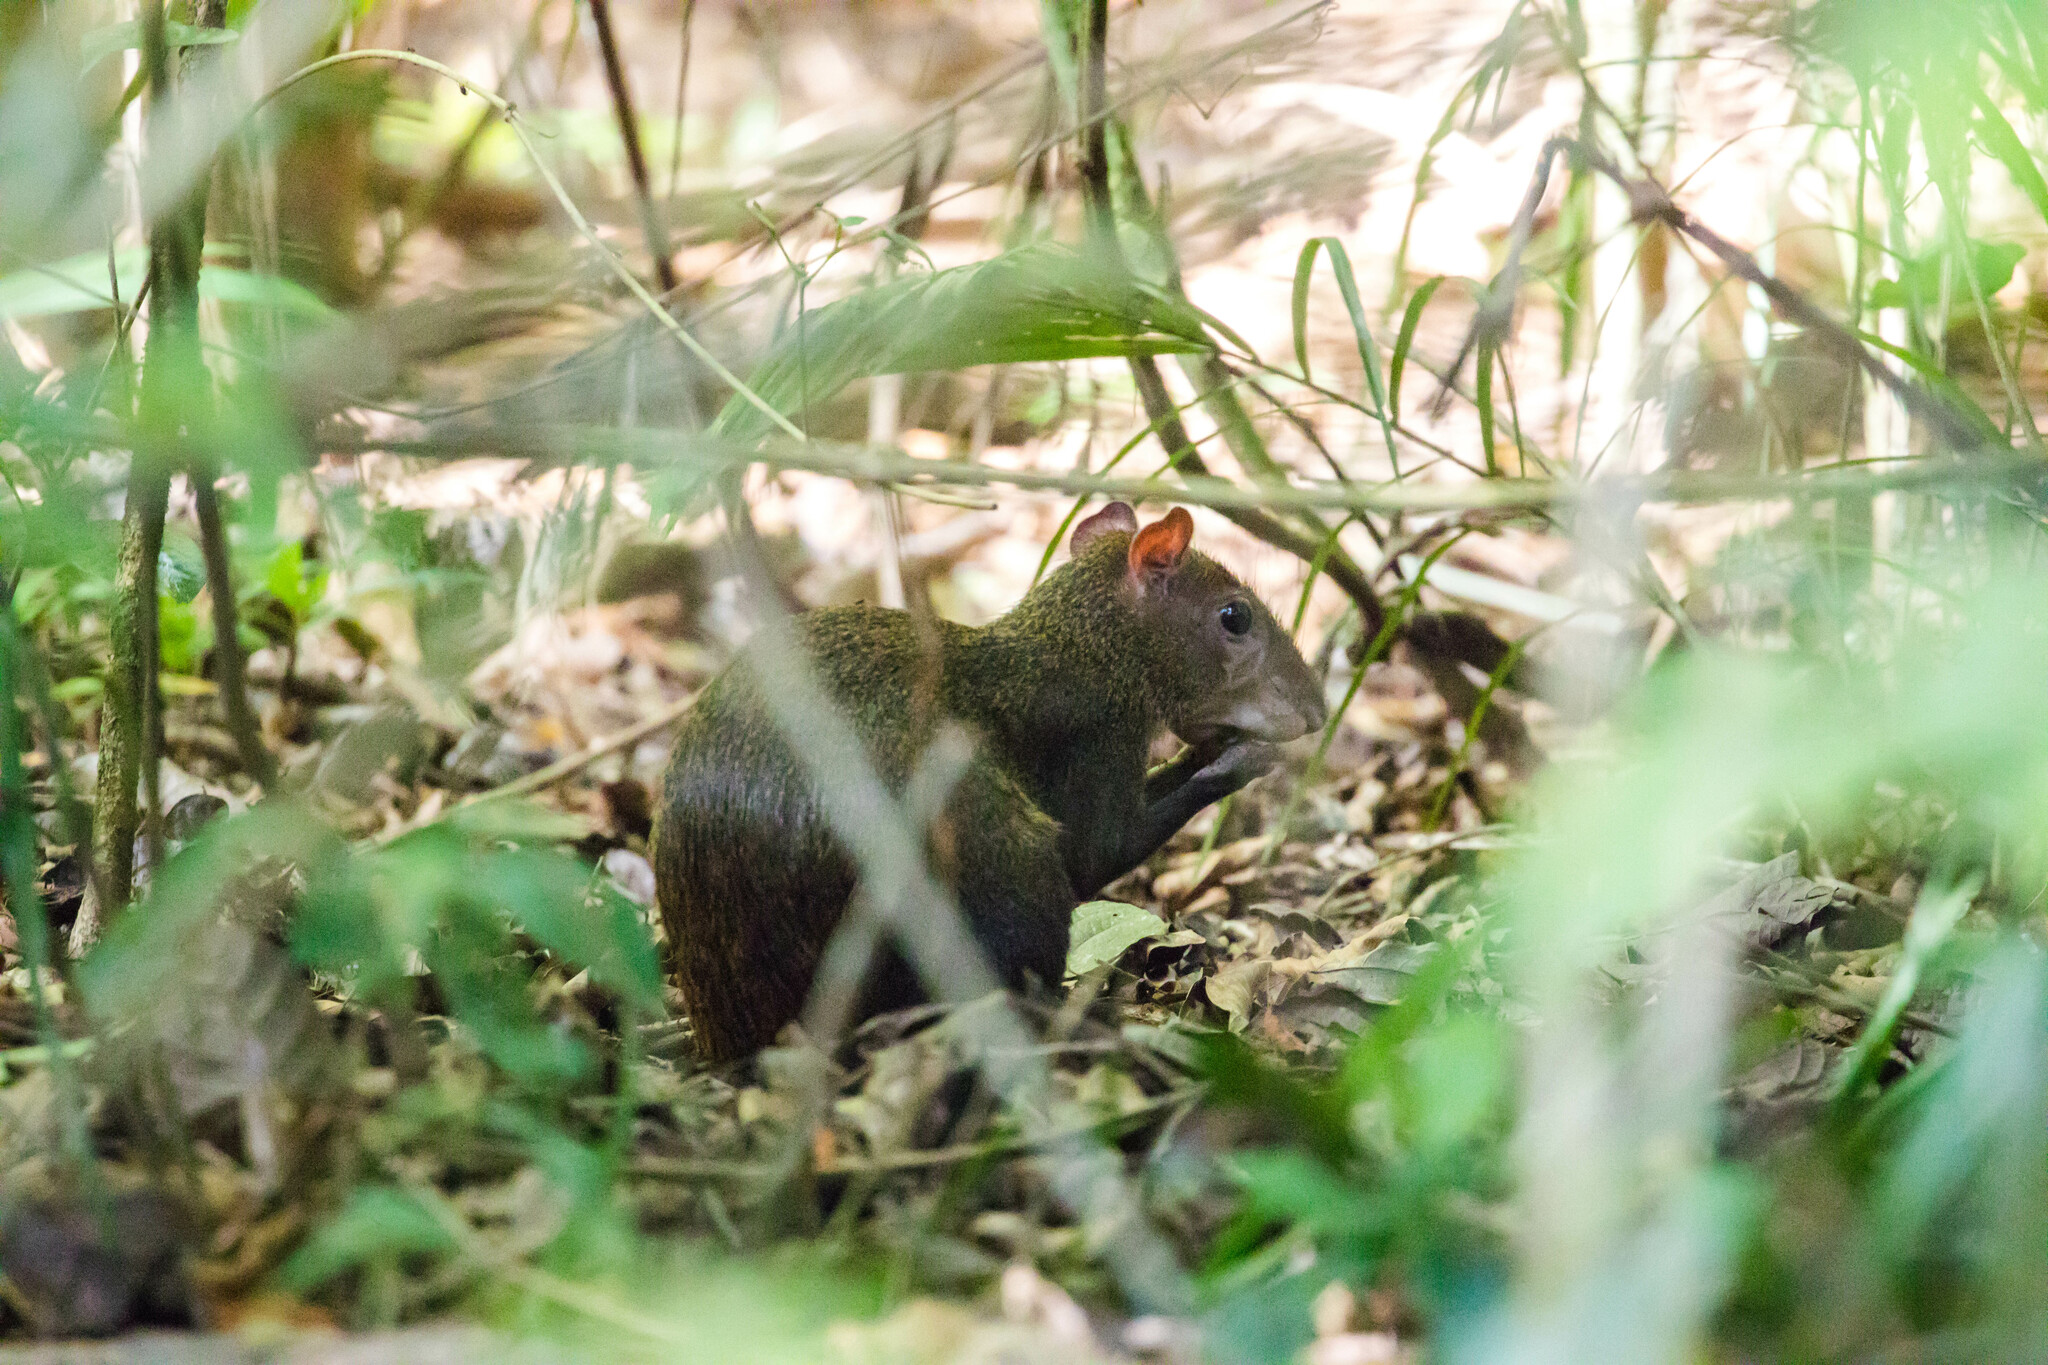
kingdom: Animalia
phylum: Chordata
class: Mammalia
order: Rodentia
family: Dasyproctidae
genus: Dasyprocta
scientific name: Dasyprocta punctata
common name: Central american agouti
